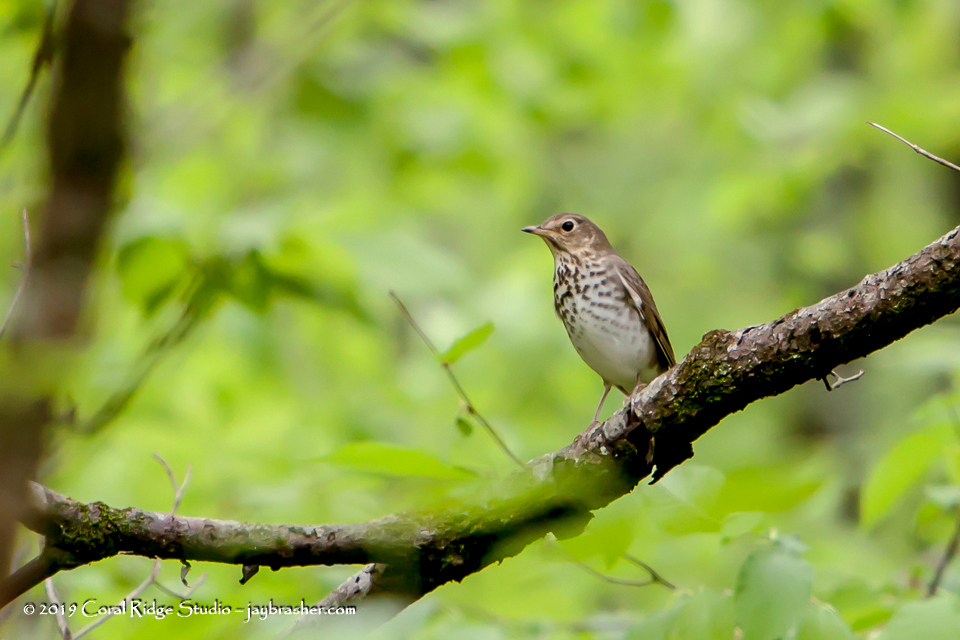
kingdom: Animalia
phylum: Chordata
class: Aves
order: Passeriformes
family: Turdidae
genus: Catharus
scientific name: Catharus ustulatus
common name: Swainson's thrush
